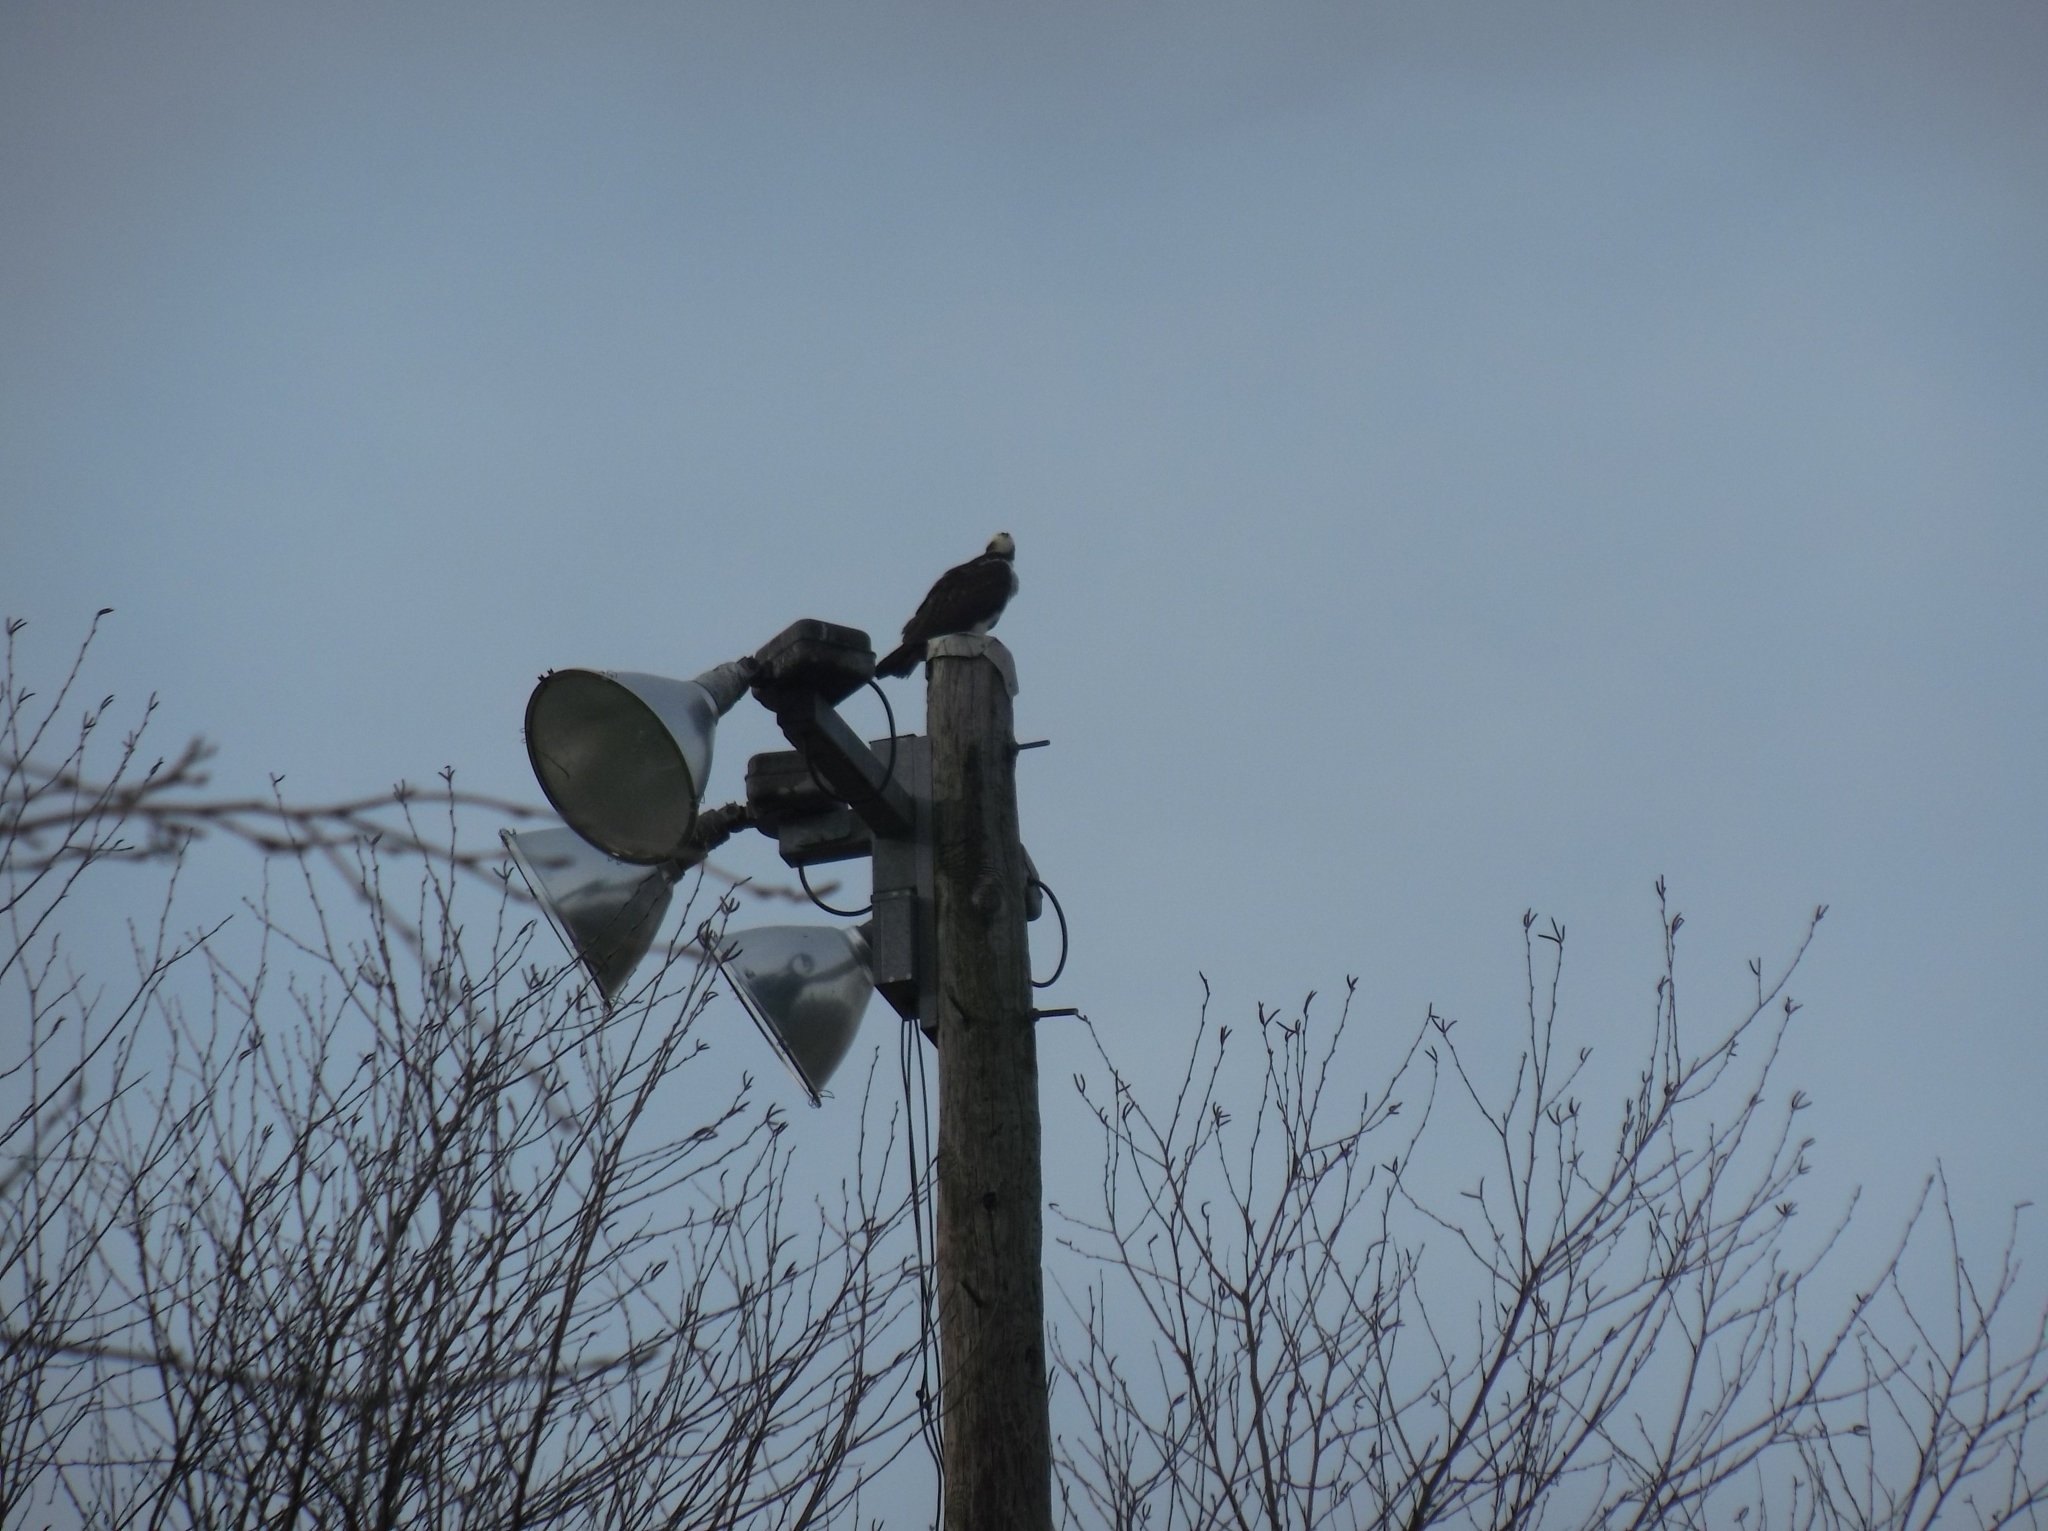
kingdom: Animalia
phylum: Chordata
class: Aves
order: Accipitriformes
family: Pandionidae
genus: Pandion
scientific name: Pandion haliaetus
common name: Osprey
